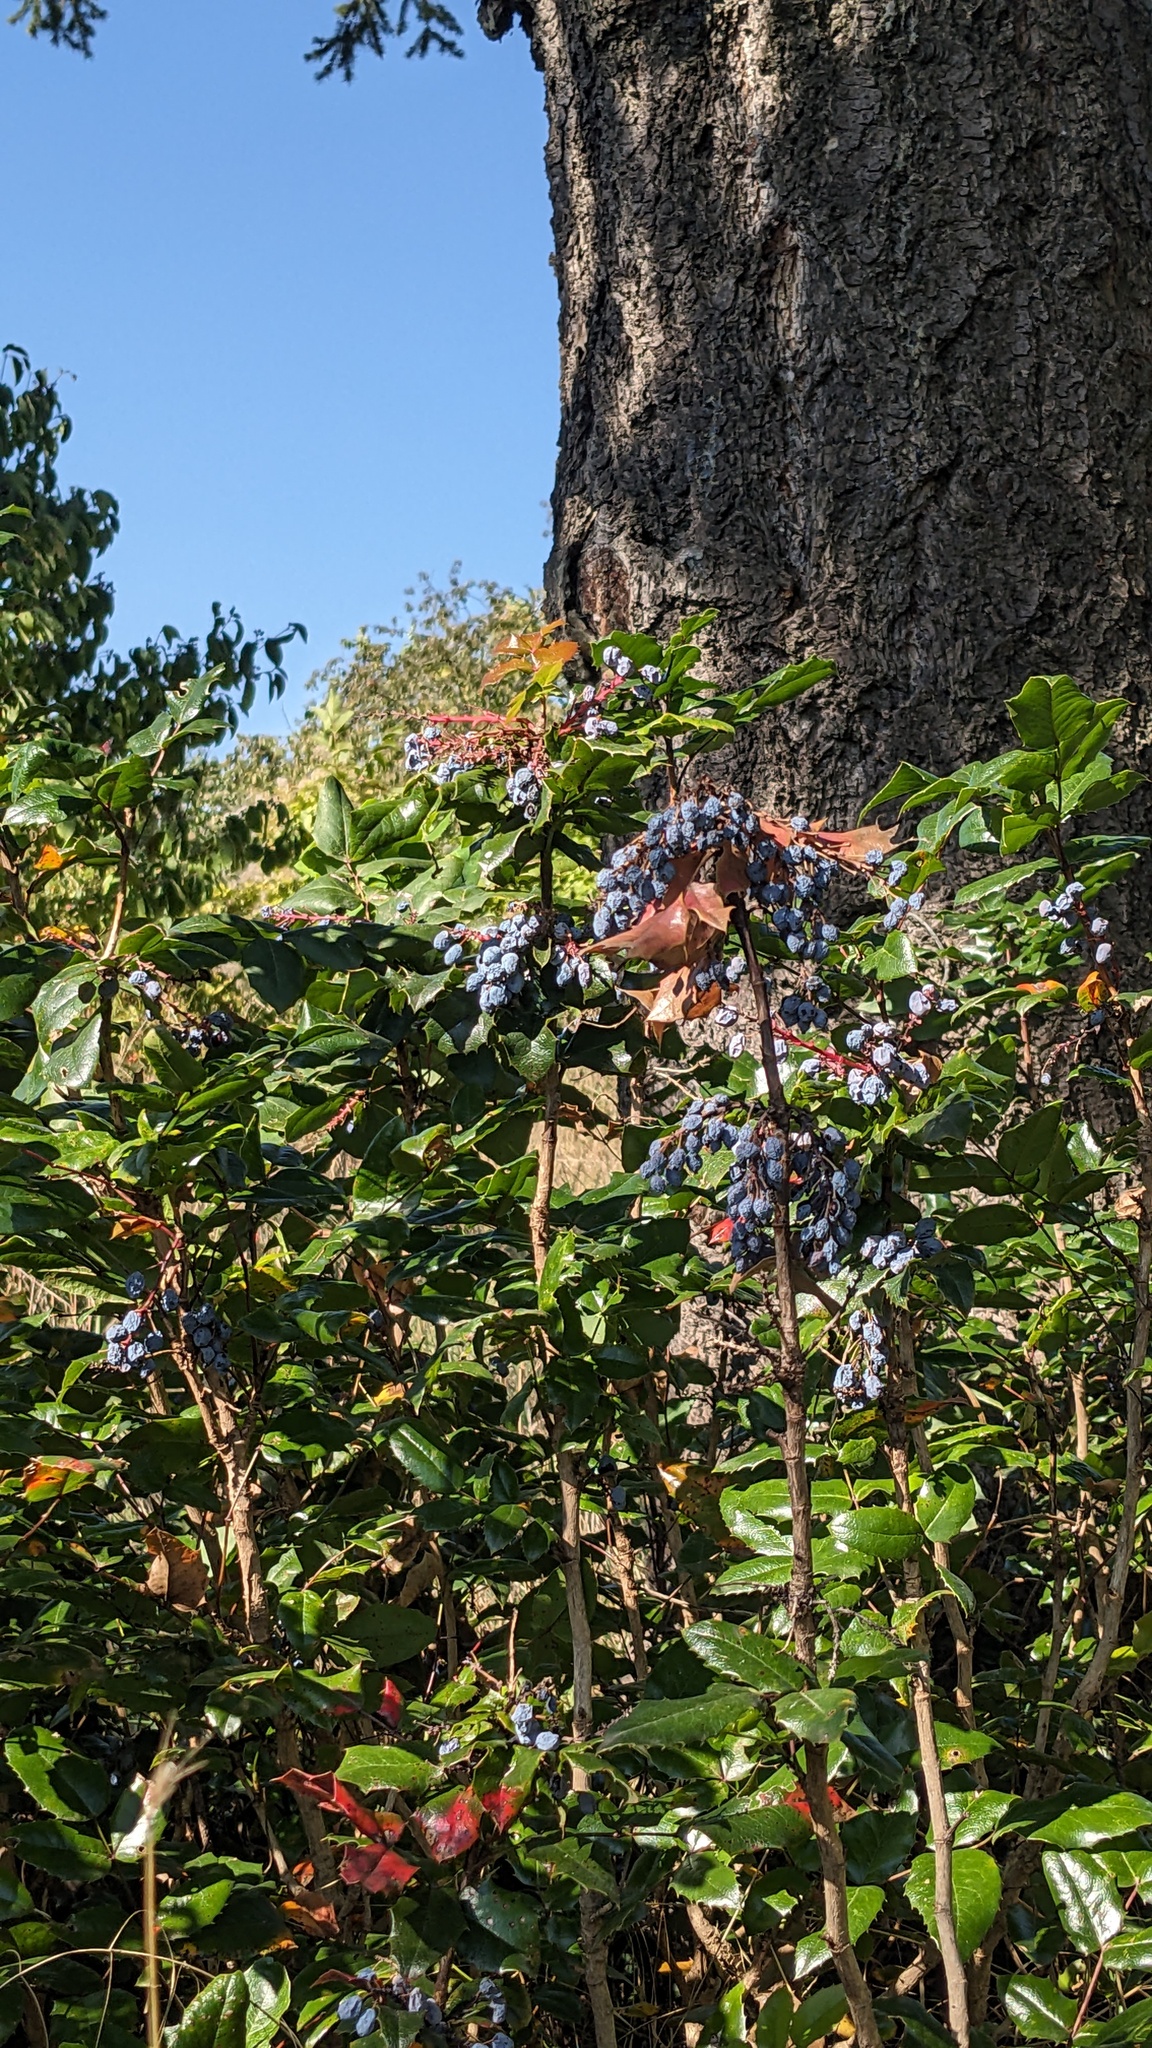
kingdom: Plantae
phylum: Tracheophyta
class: Magnoliopsida
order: Ranunculales
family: Berberidaceae
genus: Mahonia
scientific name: Mahonia aquifolium
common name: Oregon-grape
